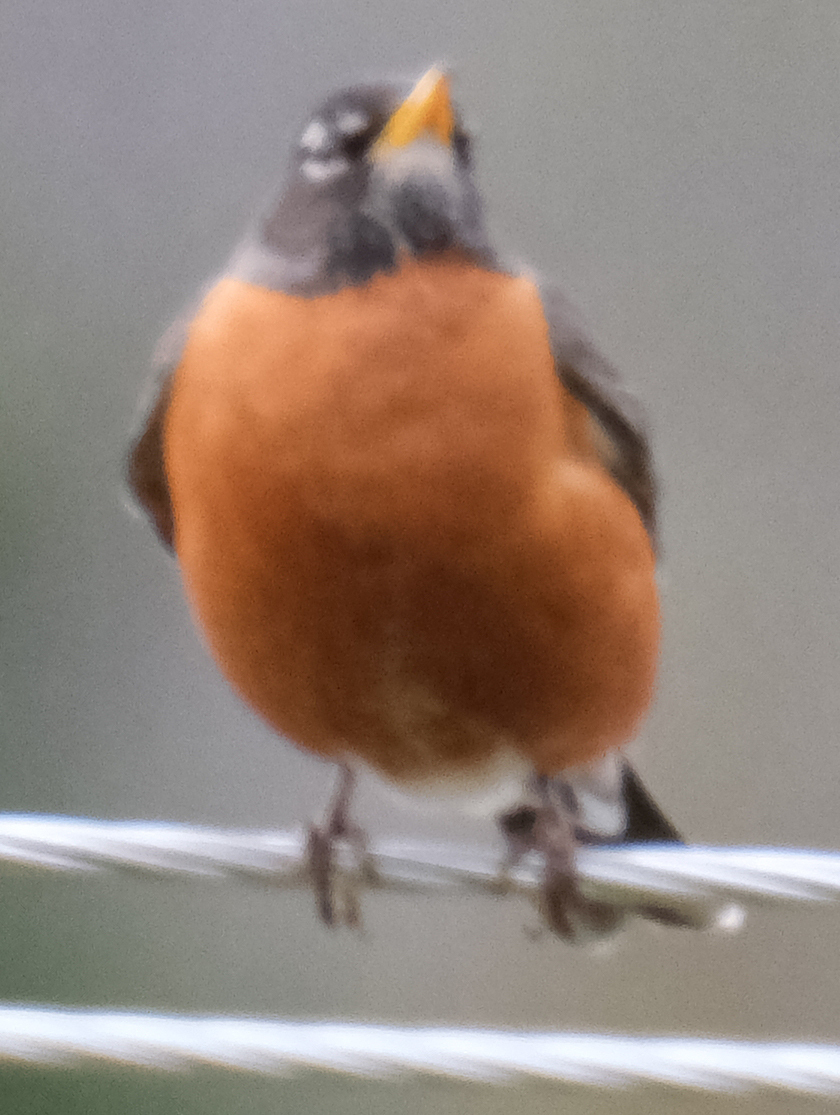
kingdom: Animalia
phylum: Chordata
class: Aves
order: Passeriformes
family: Turdidae
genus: Turdus
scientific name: Turdus migratorius
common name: American robin
